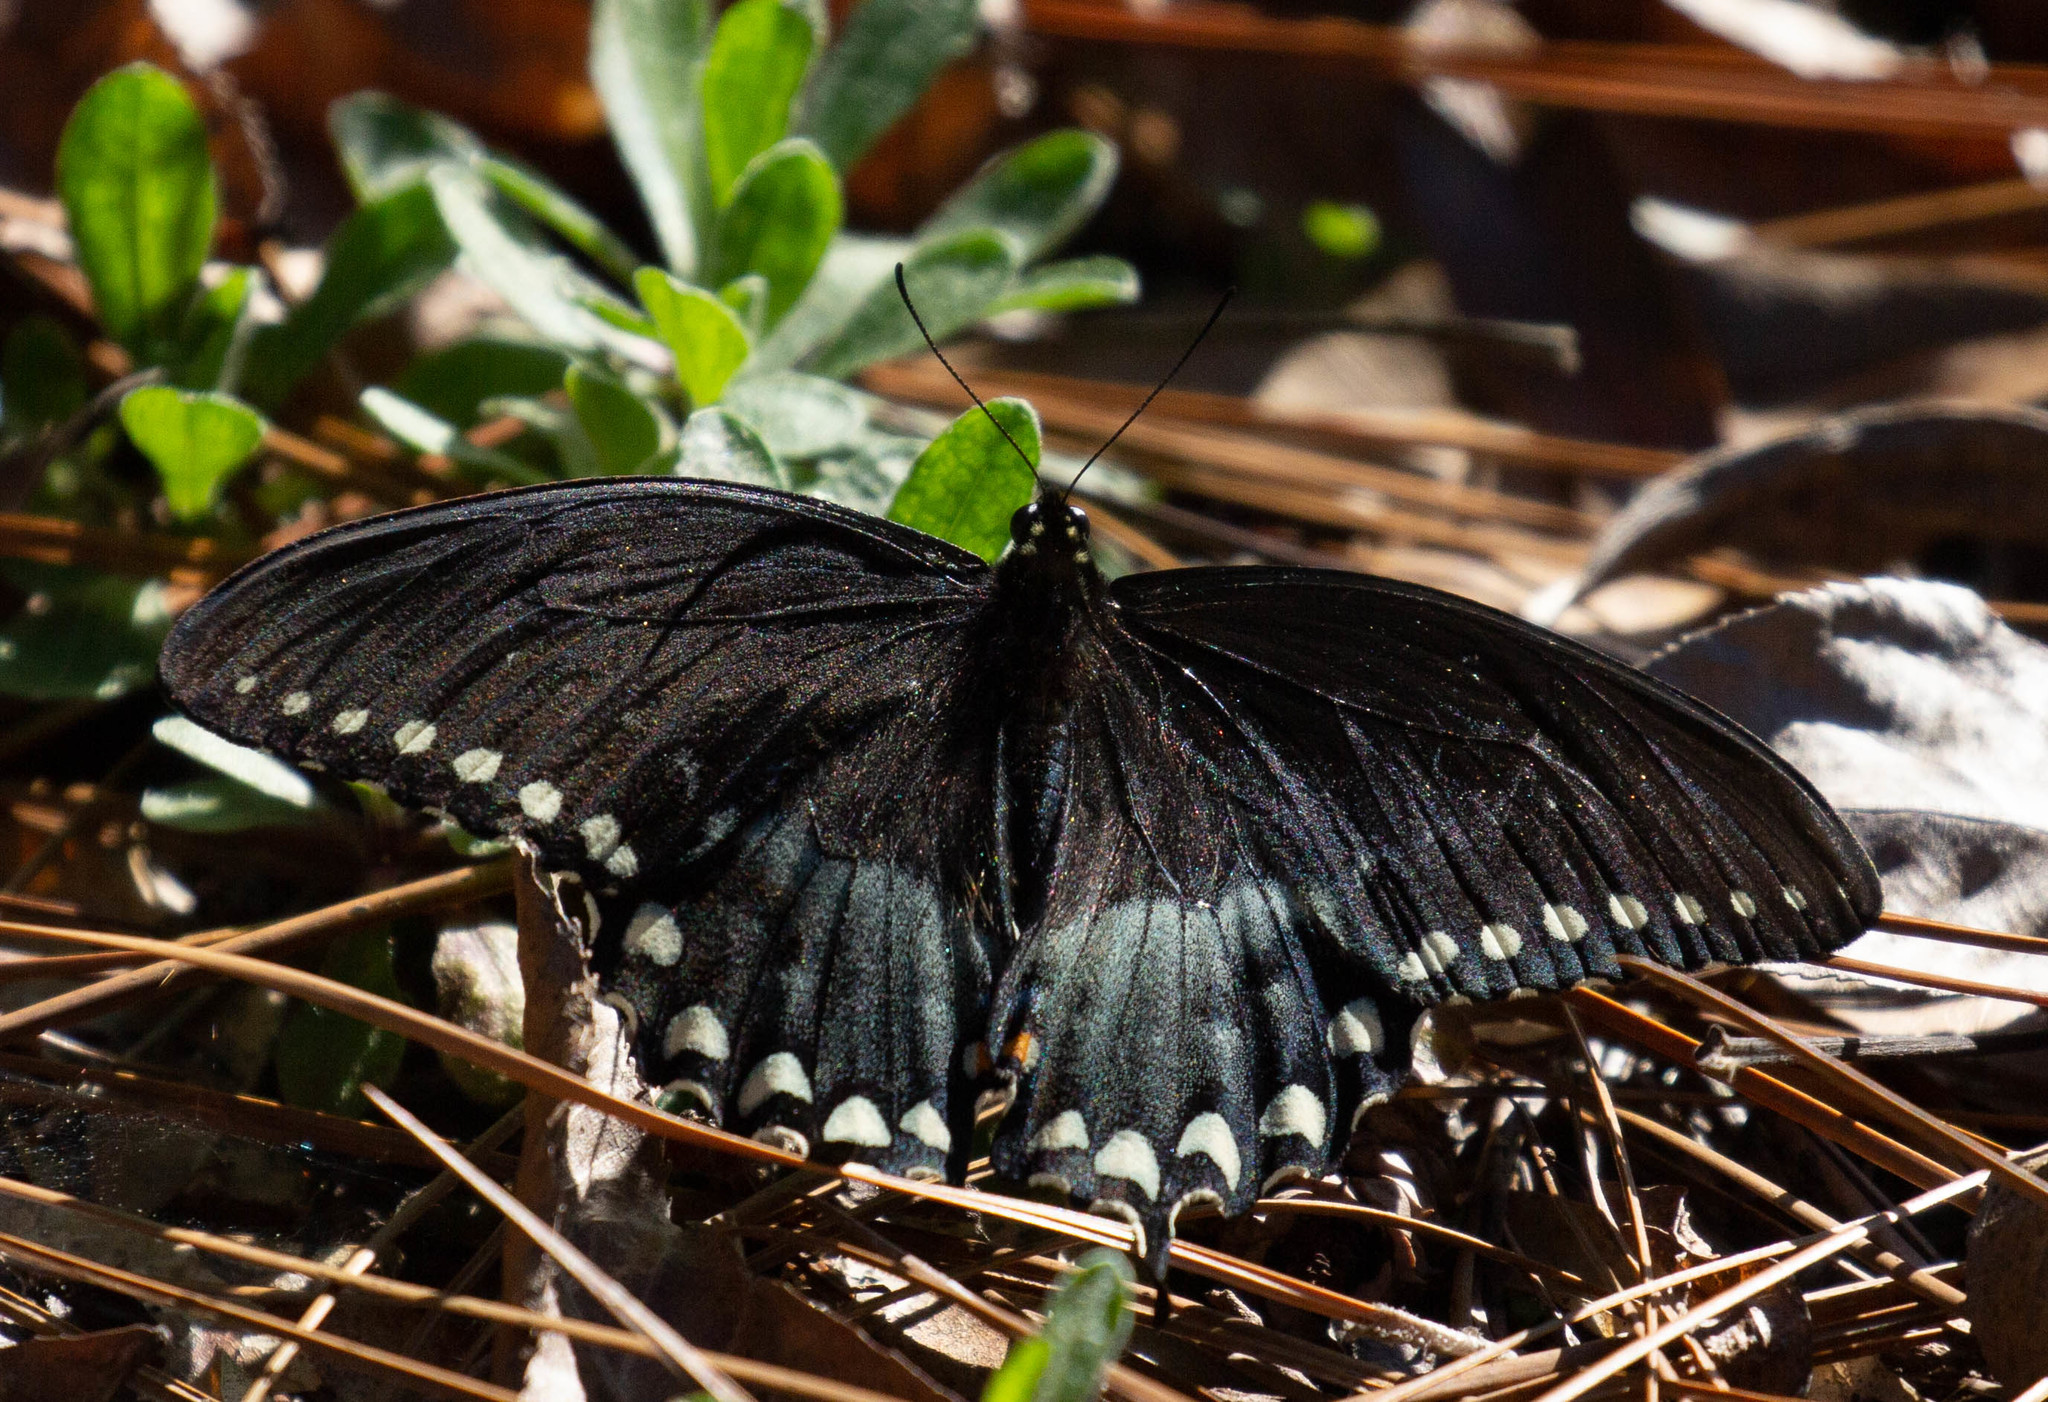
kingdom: Animalia
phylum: Arthropoda
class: Insecta
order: Lepidoptera
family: Papilionidae
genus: Papilio
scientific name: Papilio troilus
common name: Spicebush swallowtail
